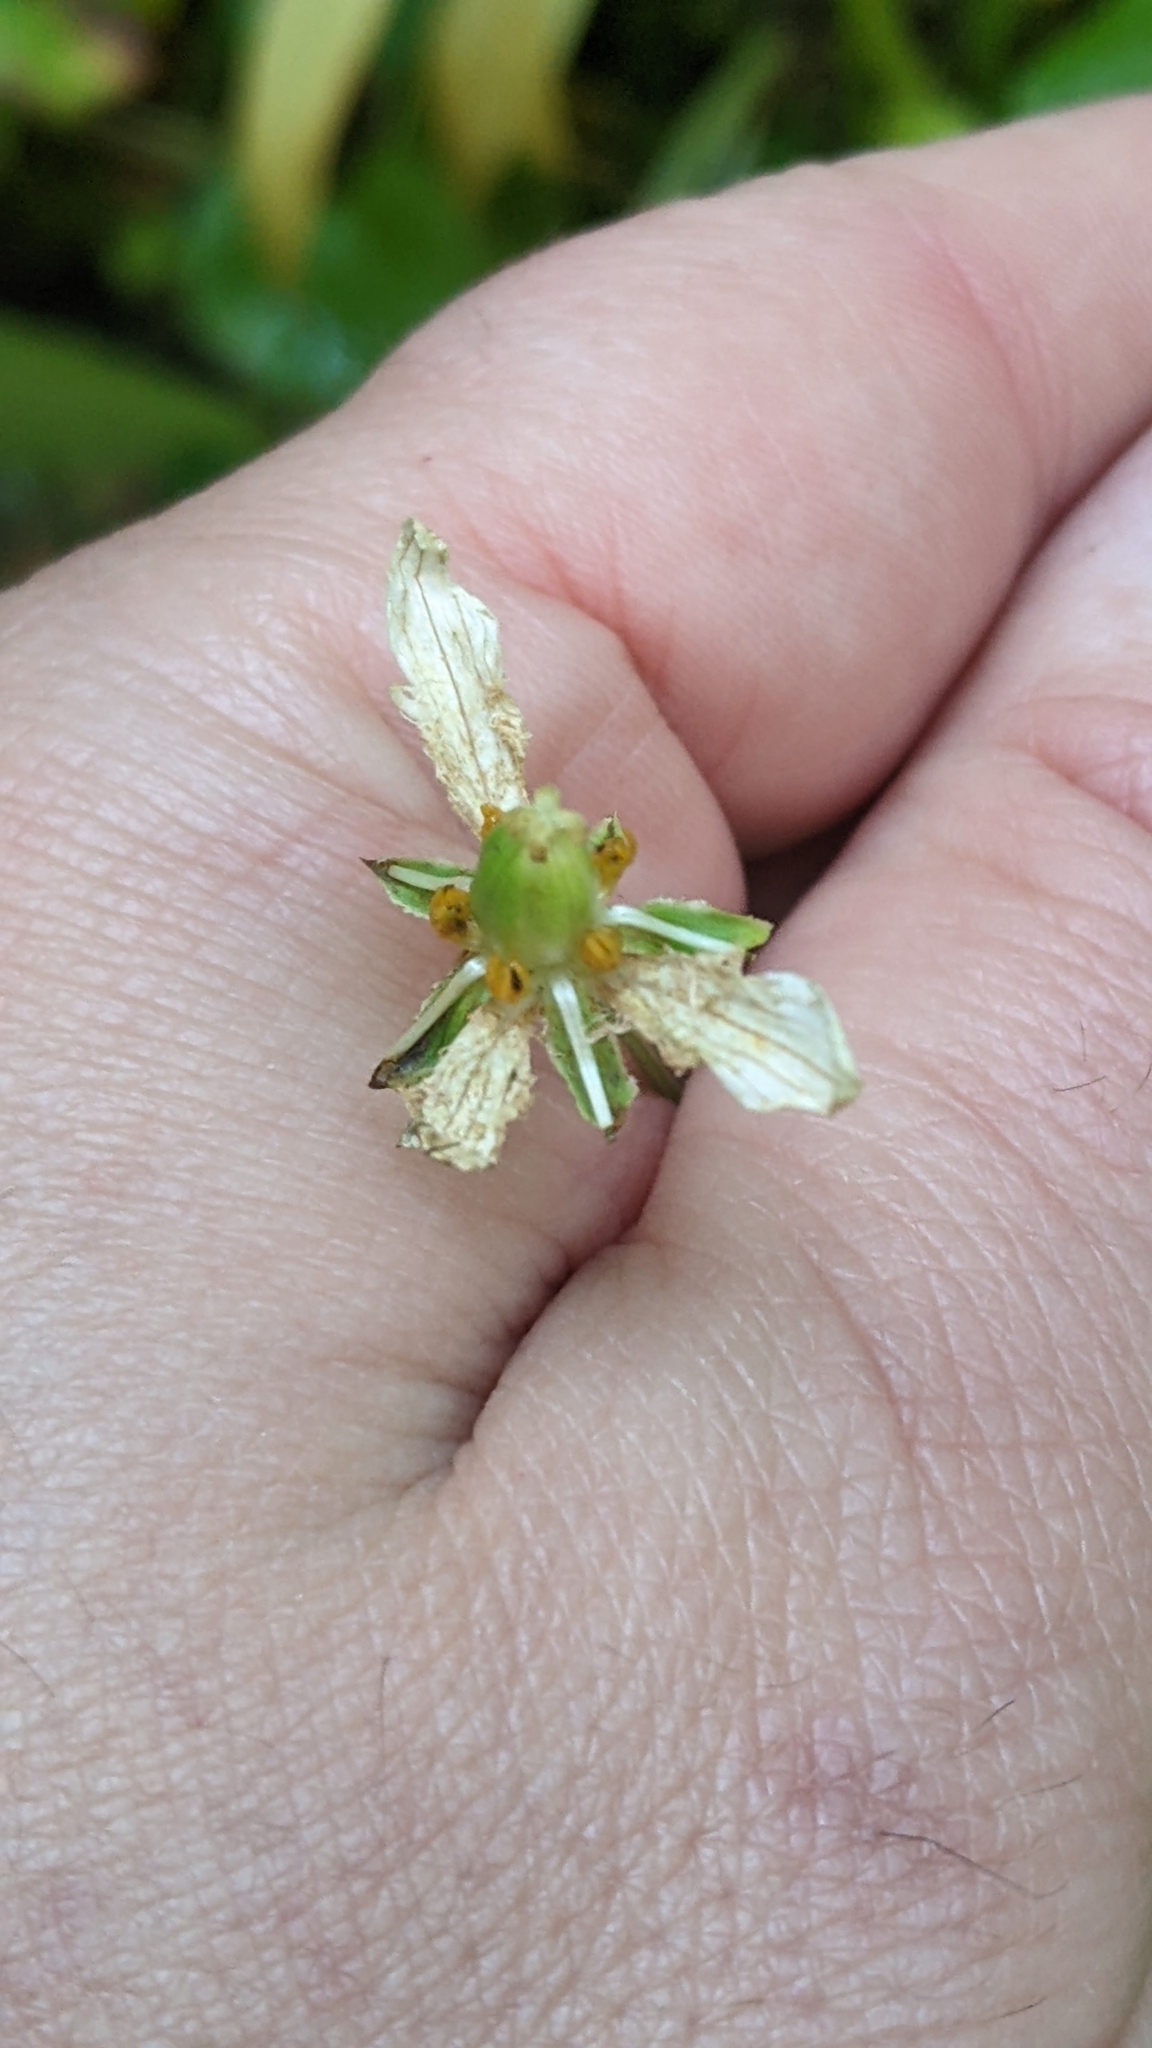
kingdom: Plantae
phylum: Tracheophyta
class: Magnoliopsida
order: Celastrales
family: Parnassiaceae
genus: Parnassia
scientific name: Parnassia fimbriata
